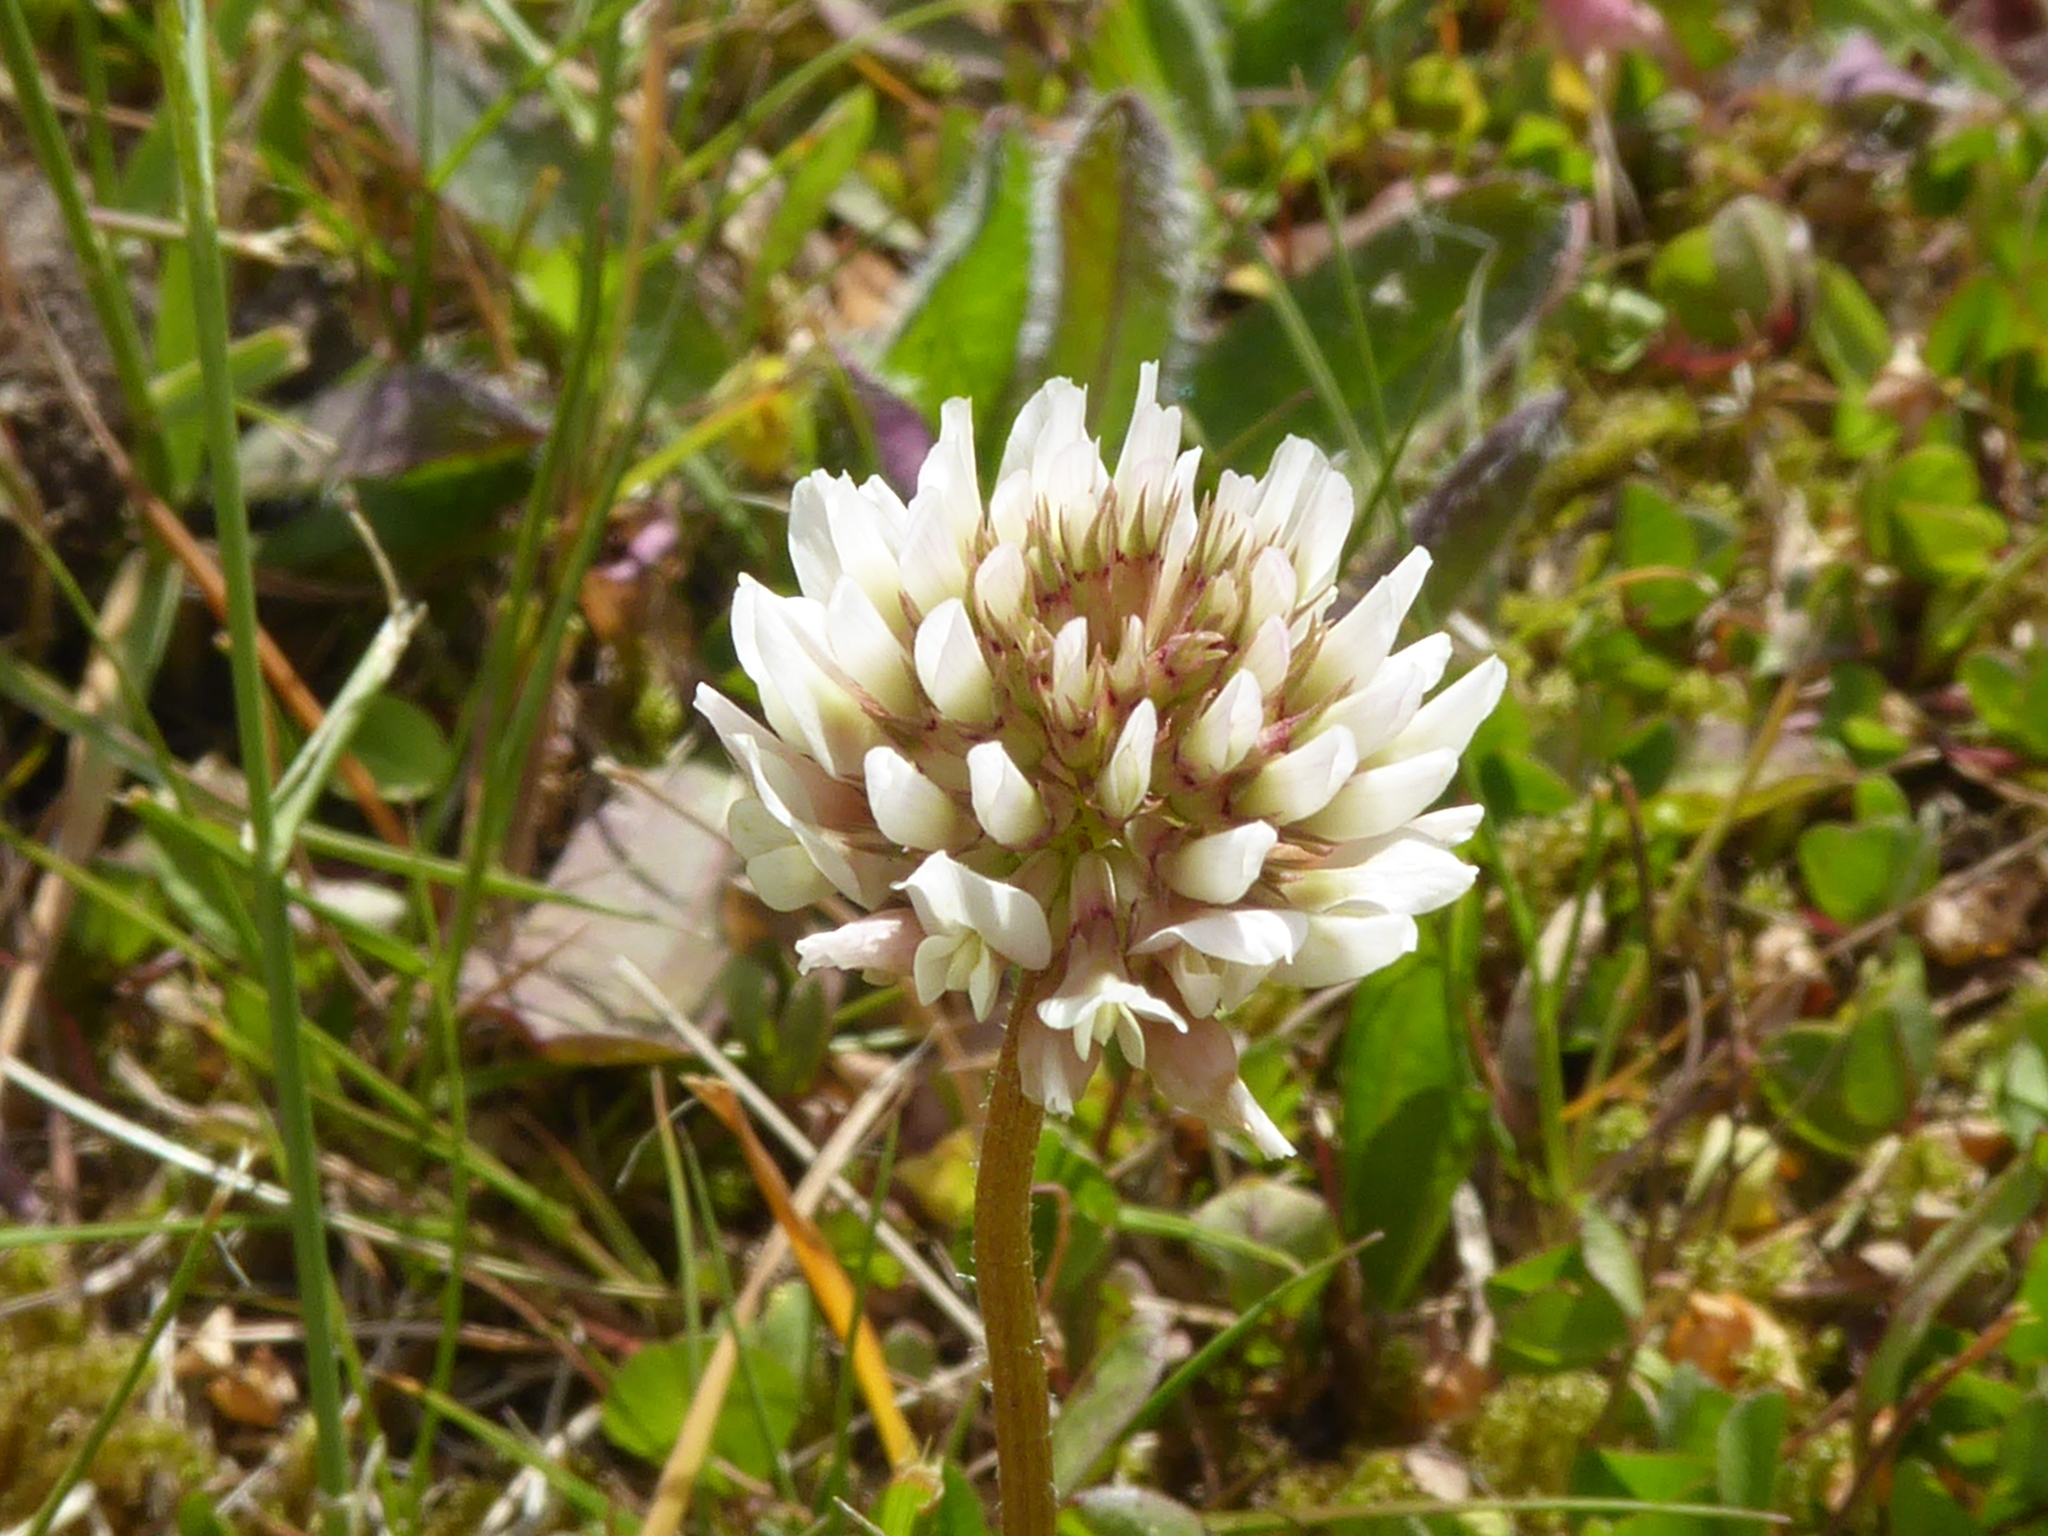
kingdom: Plantae
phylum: Tracheophyta
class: Magnoliopsida
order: Fabales
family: Fabaceae
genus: Trifolium
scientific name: Trifolium repens
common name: White clover
